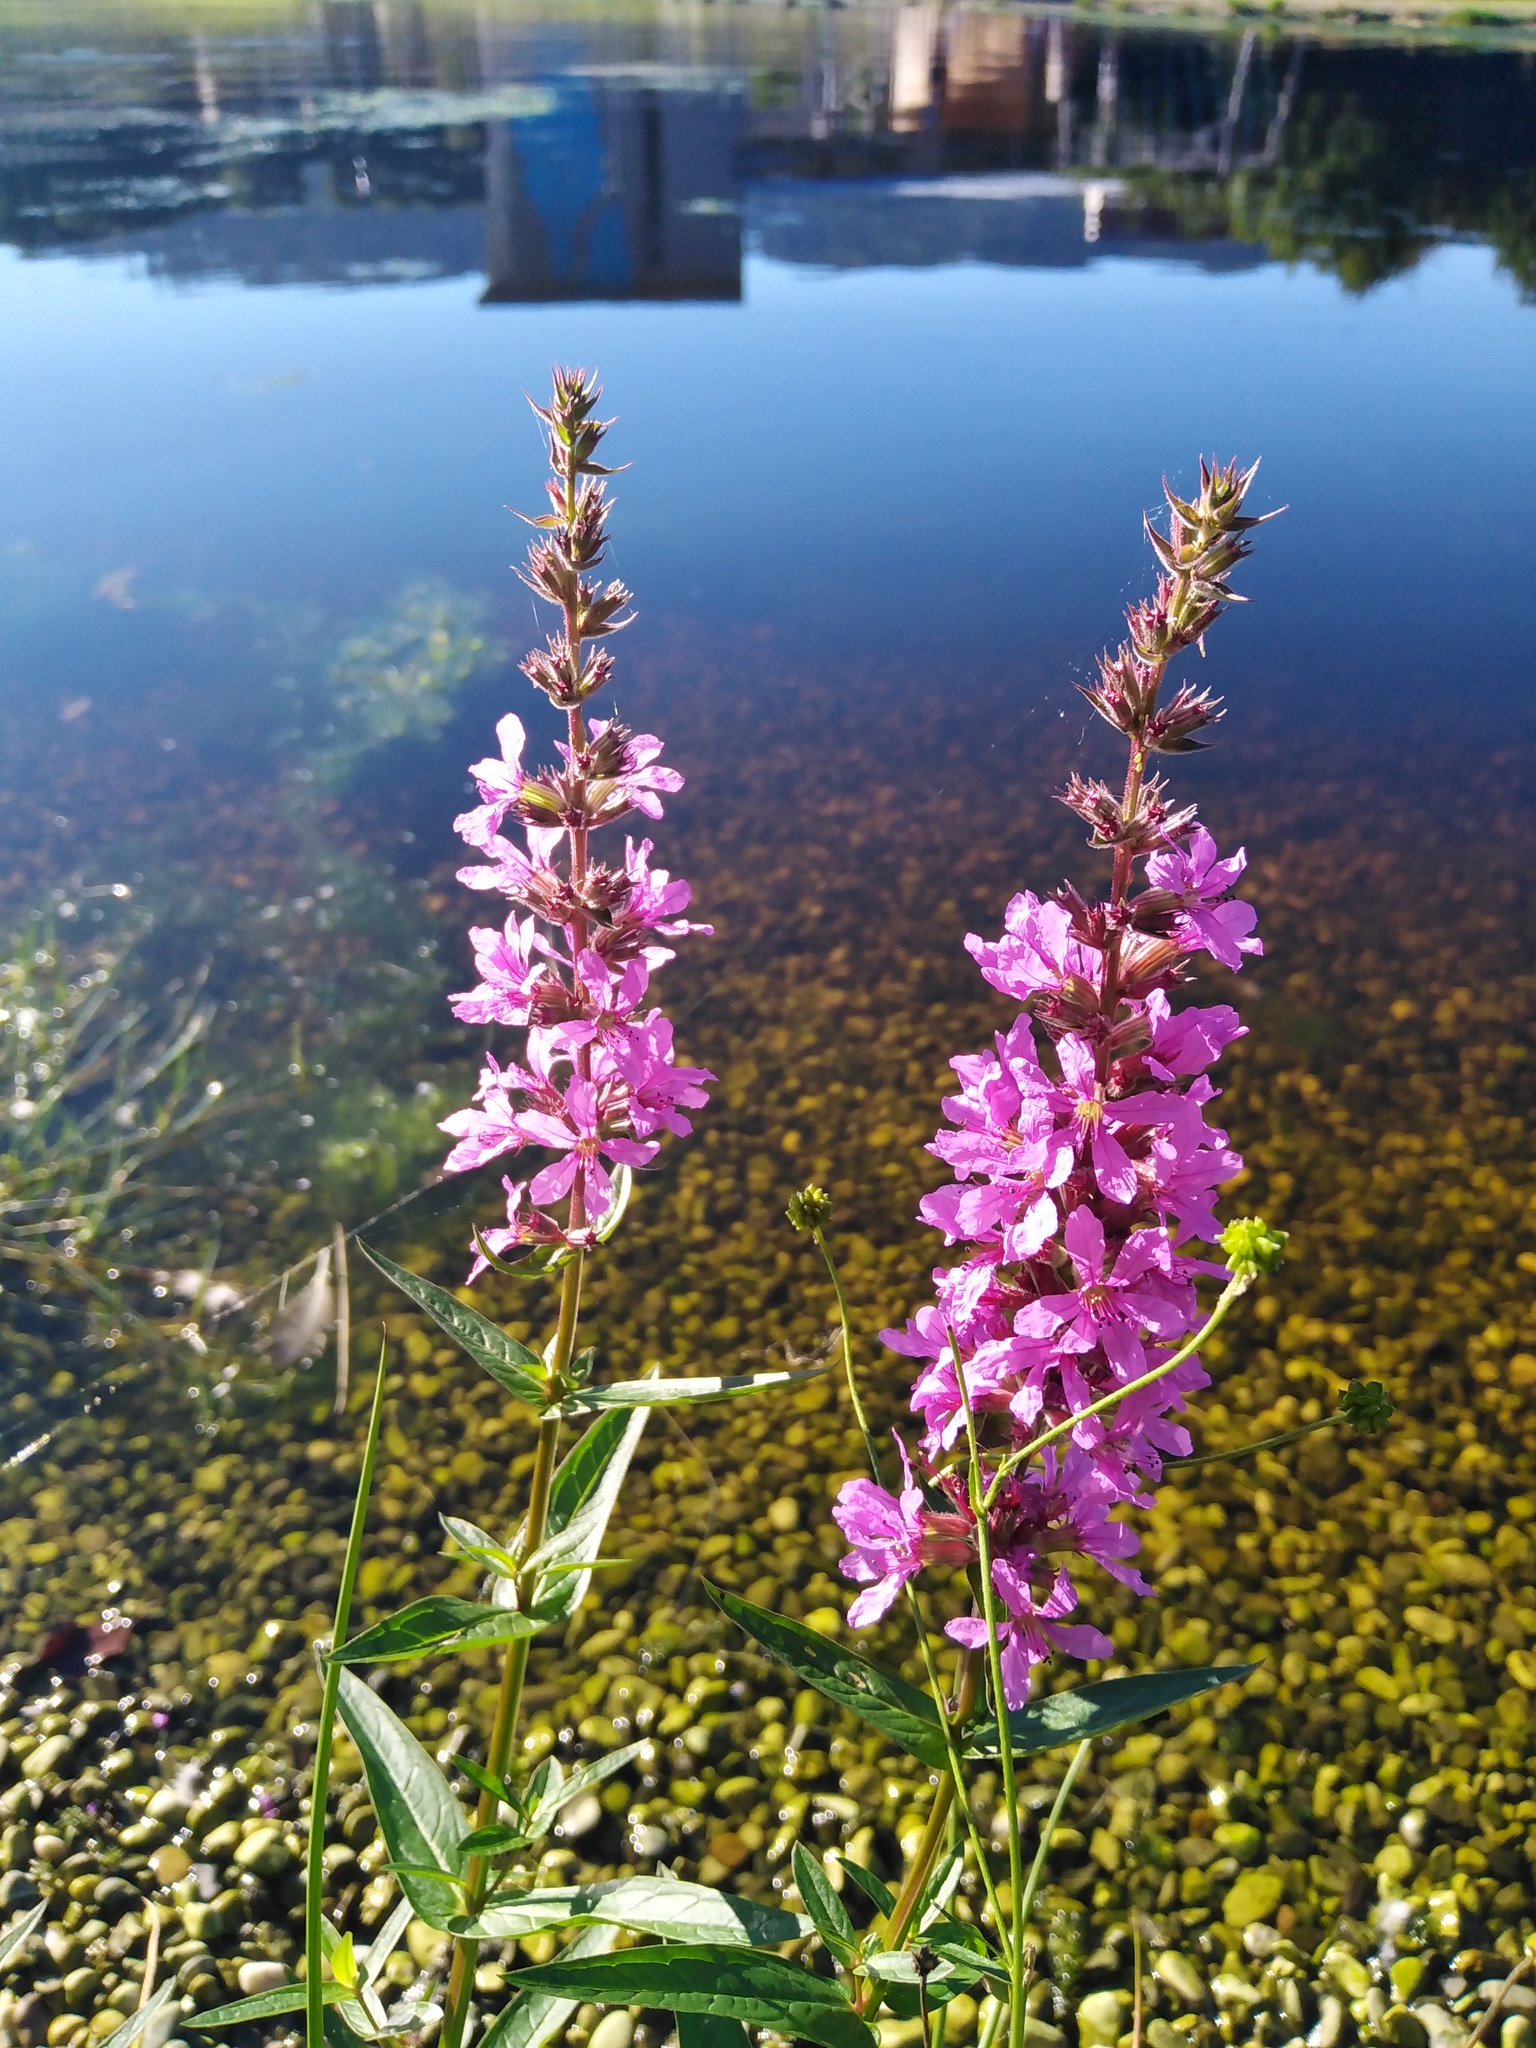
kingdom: Plantae
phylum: Tracheophyta
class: Magnoliopsida
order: Myrtales
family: Lythraceae
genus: Lythrum
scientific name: Lythrum salicaria
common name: Purple loosestrife
